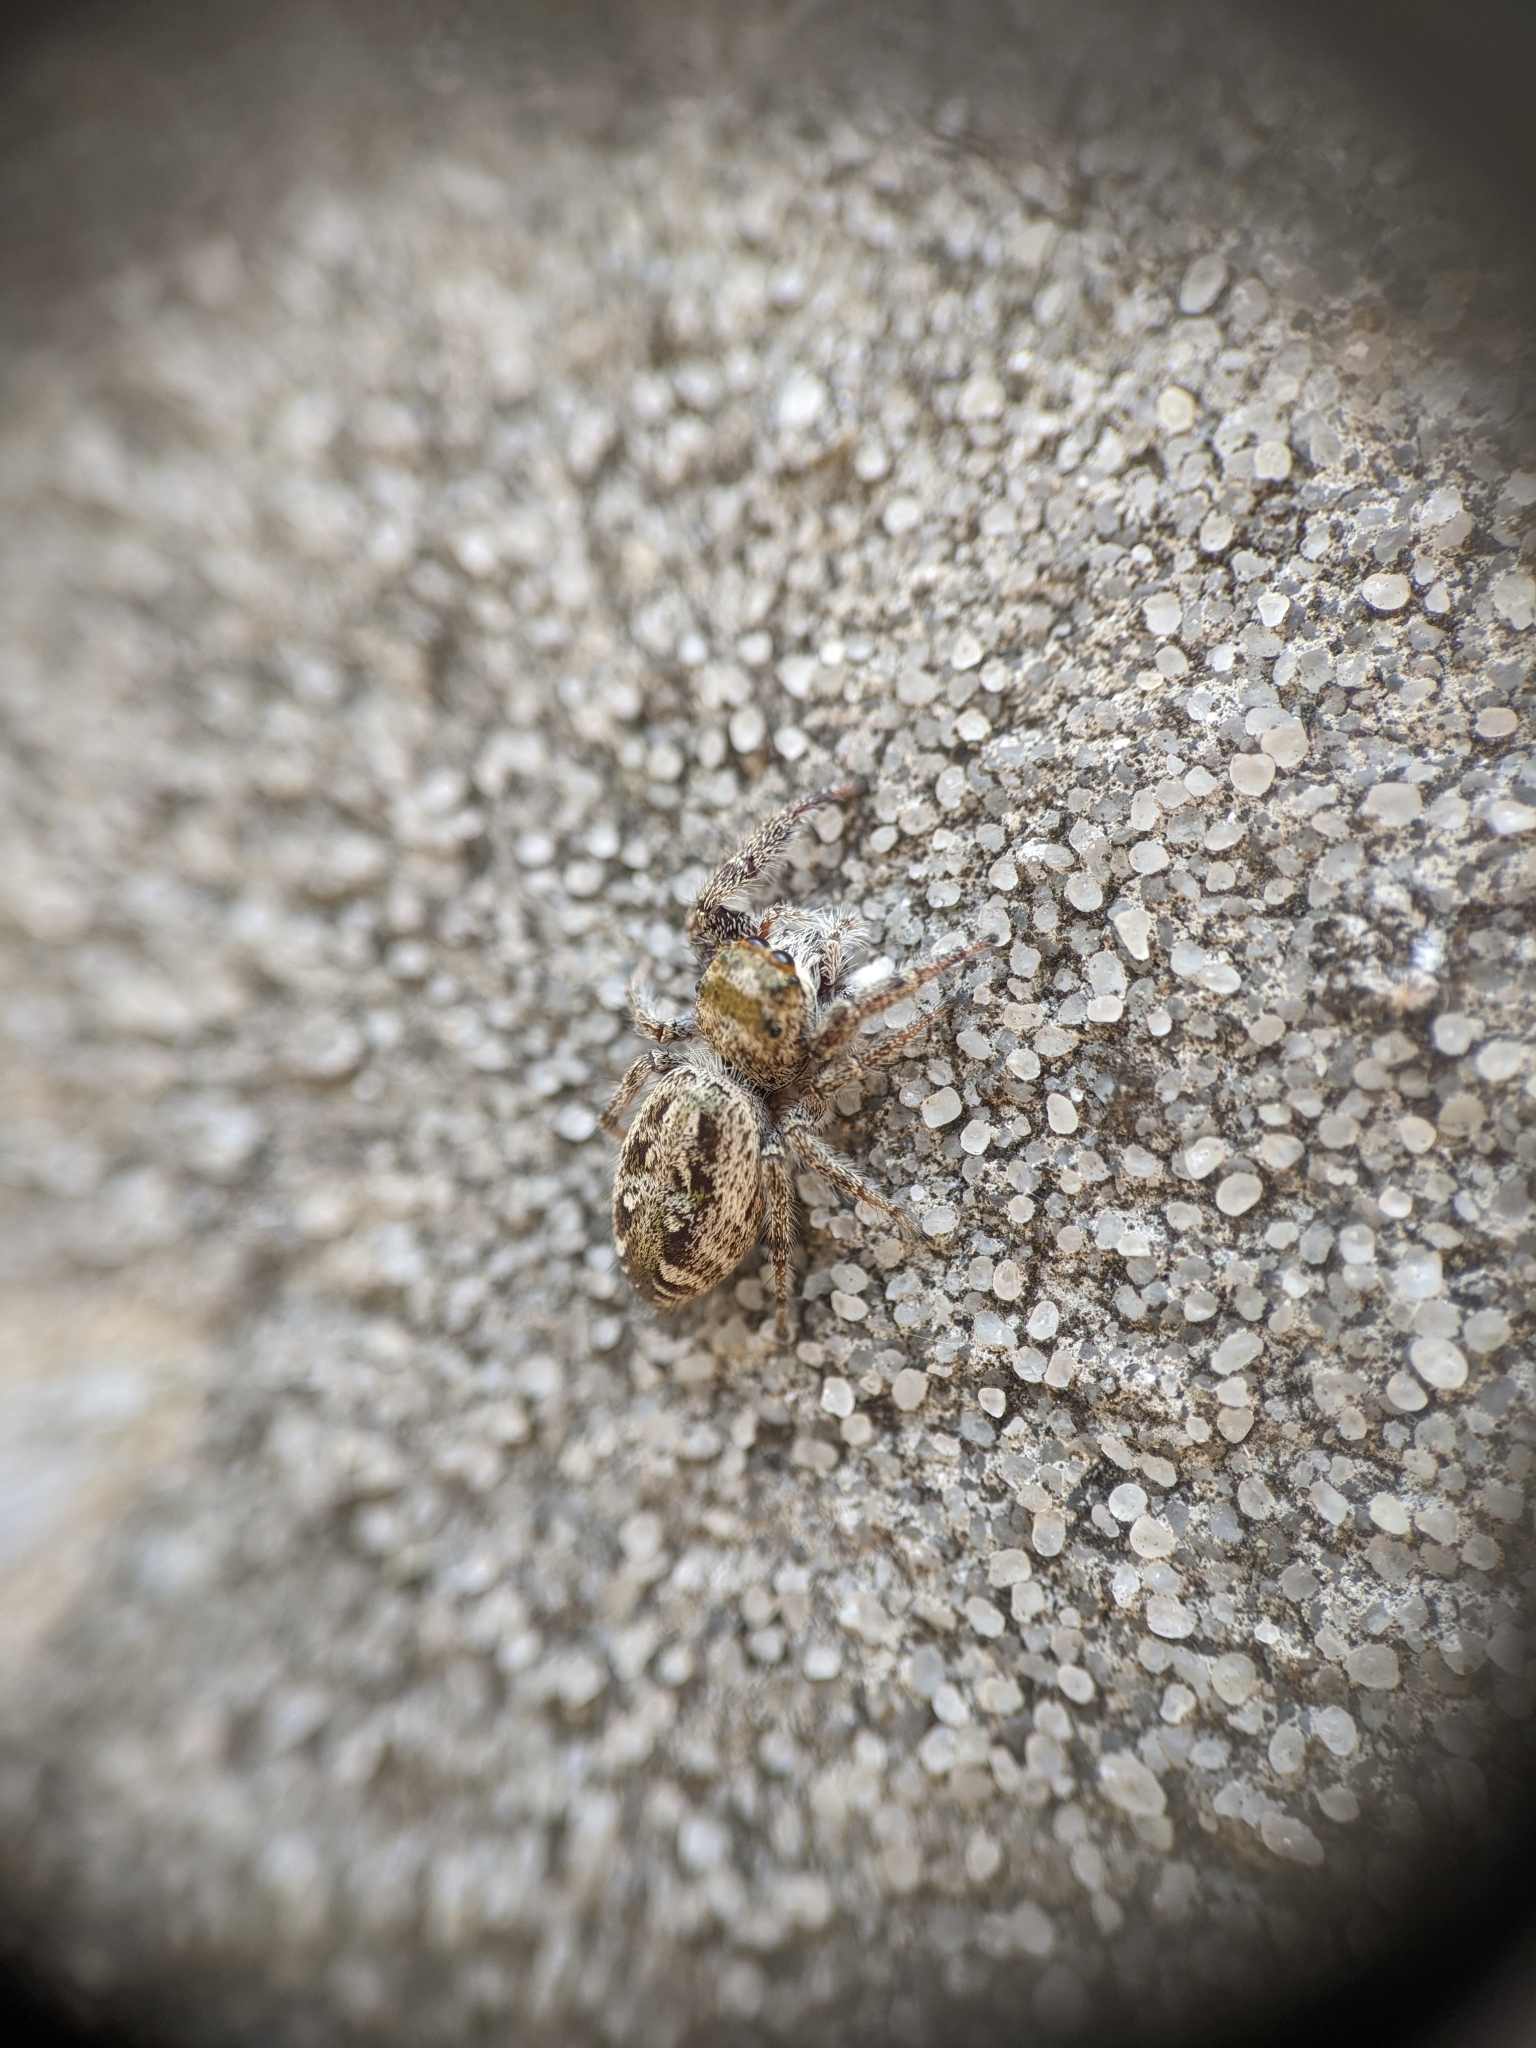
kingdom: Animalia
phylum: Arthropoda
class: Arachnida
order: Araneae
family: Salticidae
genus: Eris
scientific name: Eris militaris
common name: Bronze jumper
